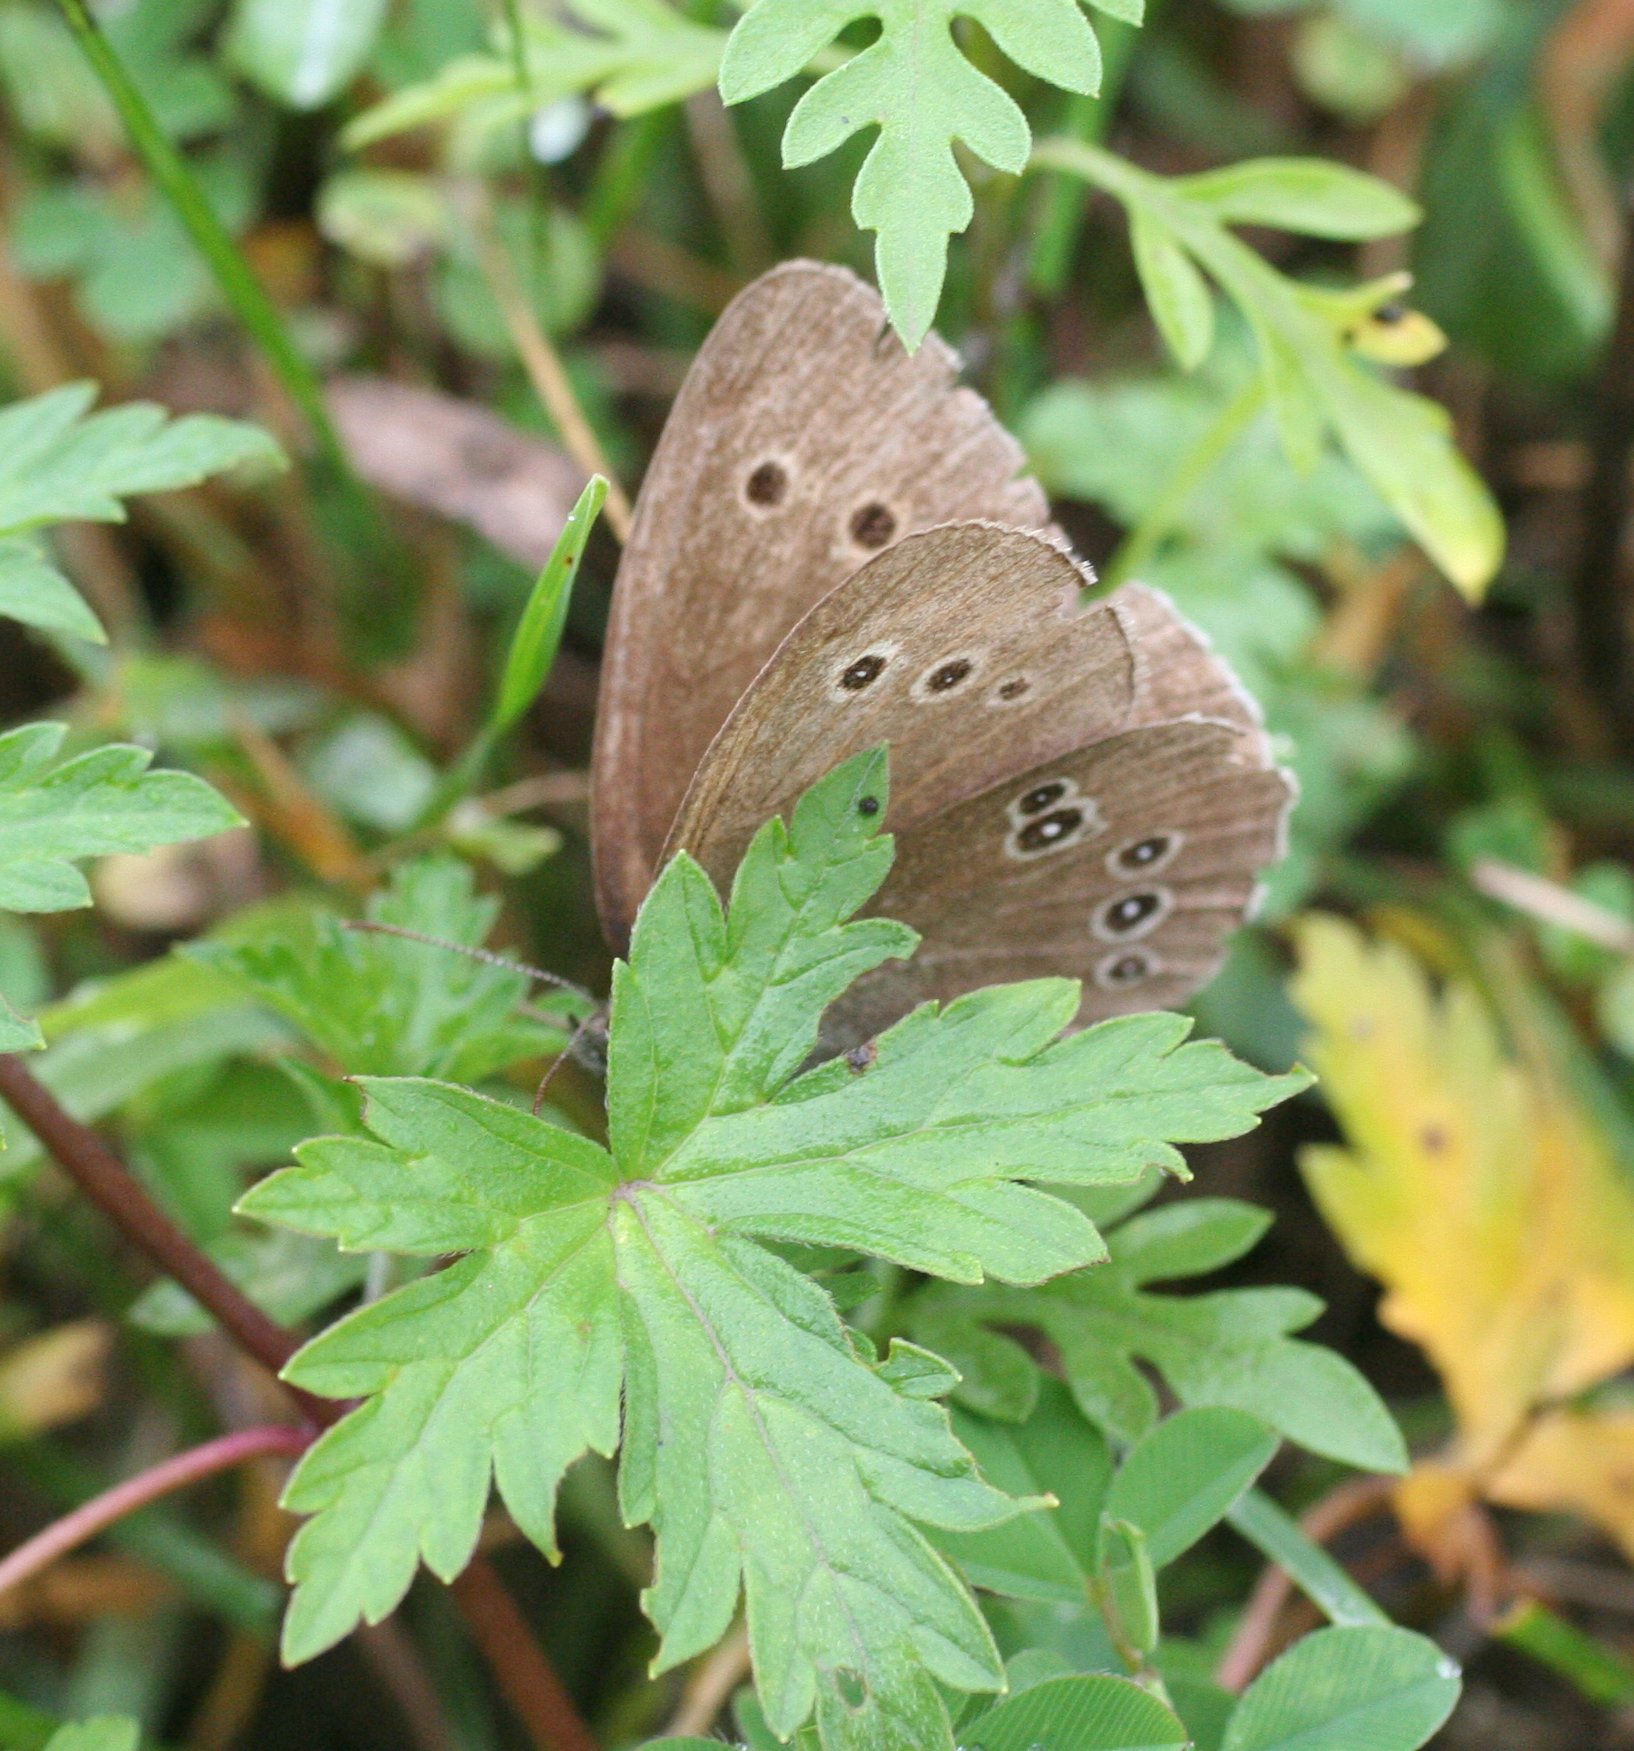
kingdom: Animalia
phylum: Arthropoda
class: Insecta
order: Lepidoptera
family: Nymphalidae
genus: Aphantopus
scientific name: Aphantopus hyperantus
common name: Ringlet
